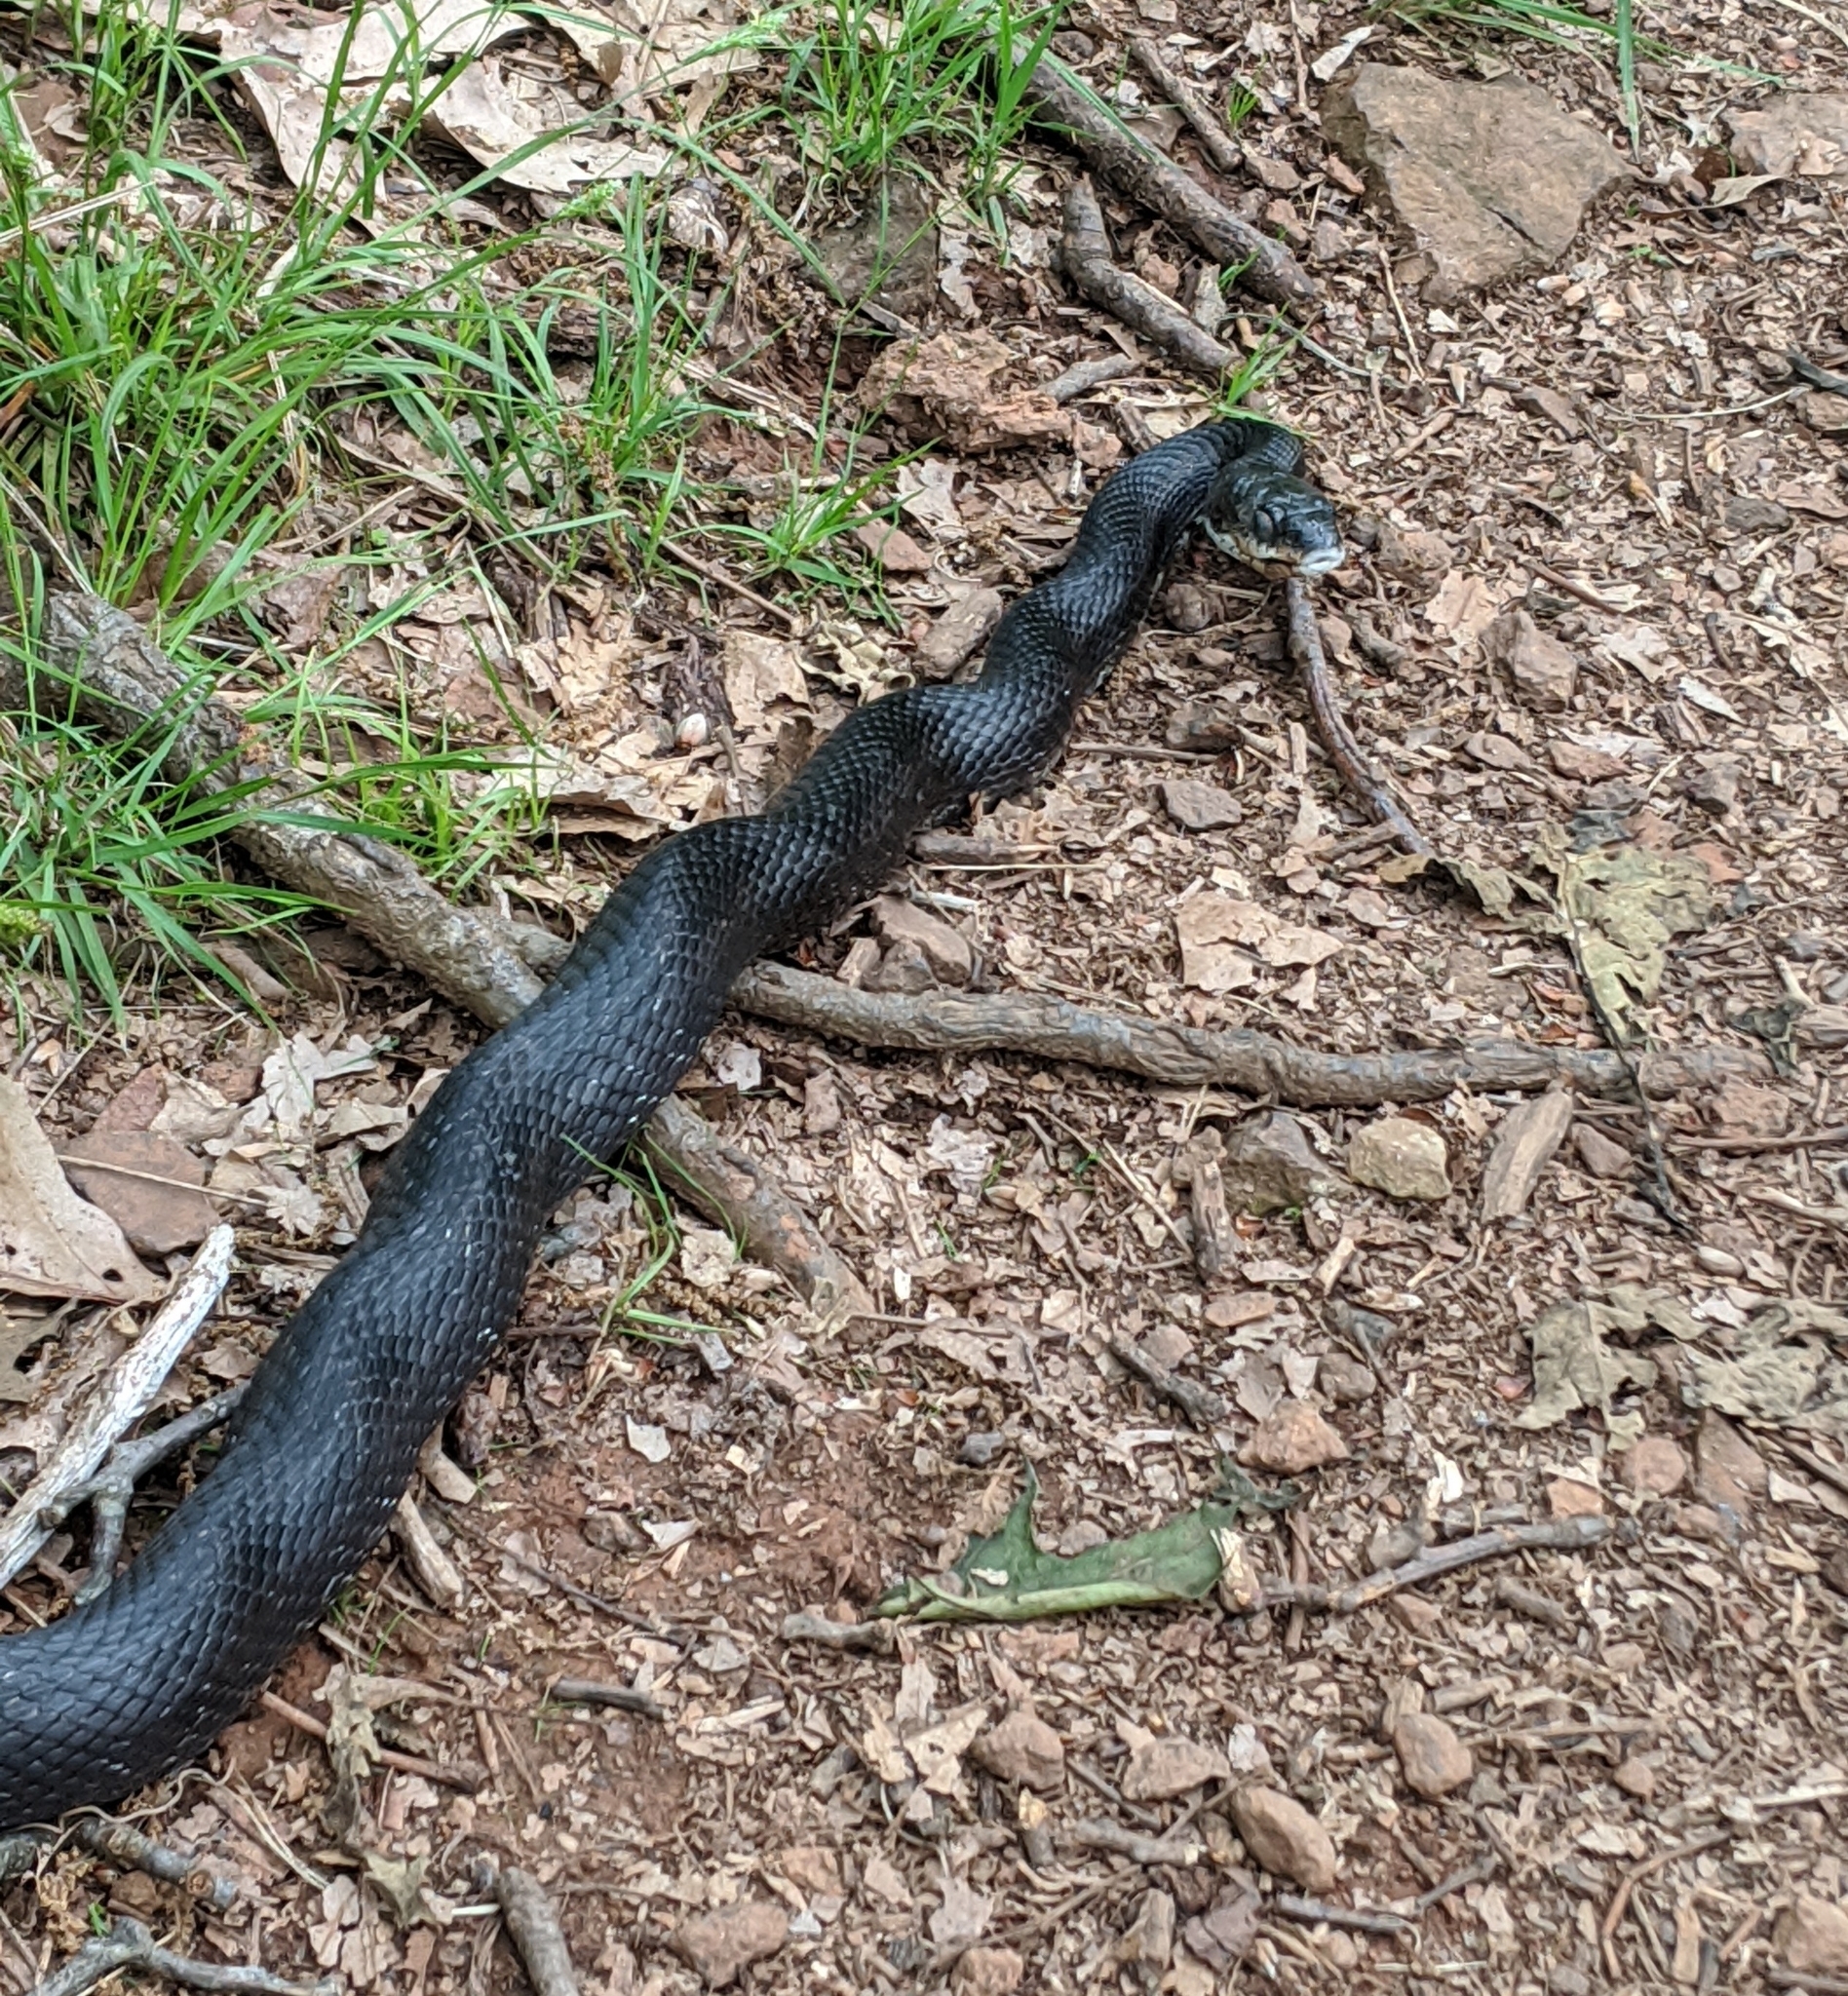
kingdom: Animalia
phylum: Chordata
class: Squamata
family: Colubridae
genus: Pantherophis
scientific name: Pantherophis alleghaniensis
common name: Eastern rat snake
